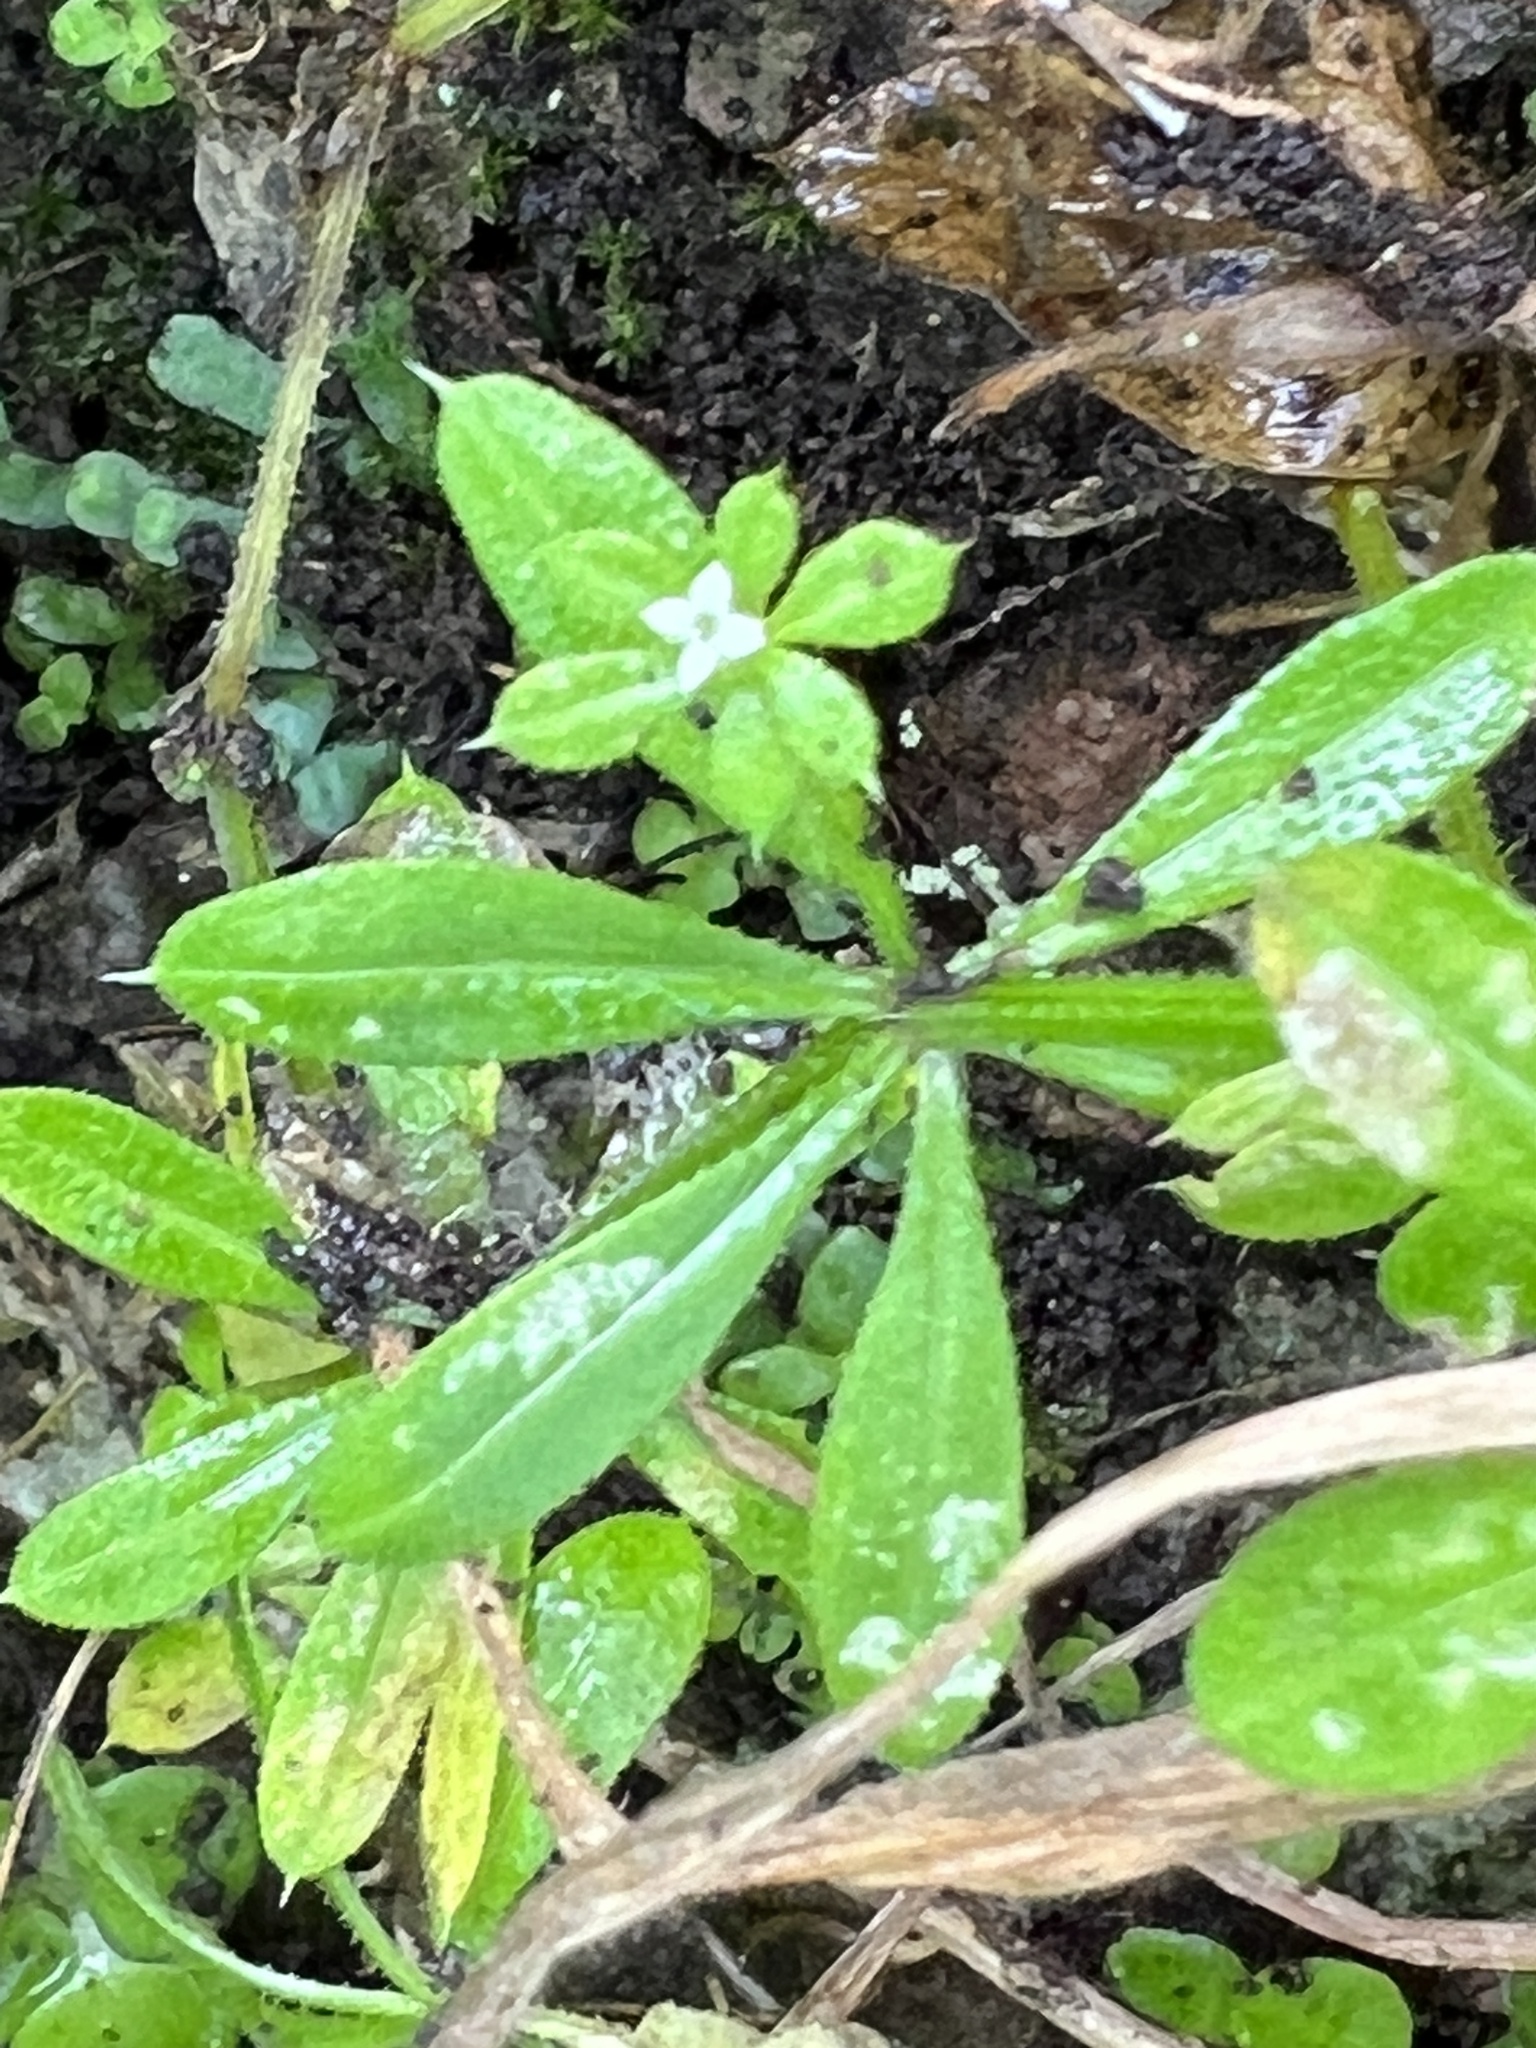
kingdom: Plantae
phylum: Tracheophyta
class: Magnoliopsida
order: Gentianales
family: Rubiaceae
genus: Galium
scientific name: Galium aparine
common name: Cleavers
